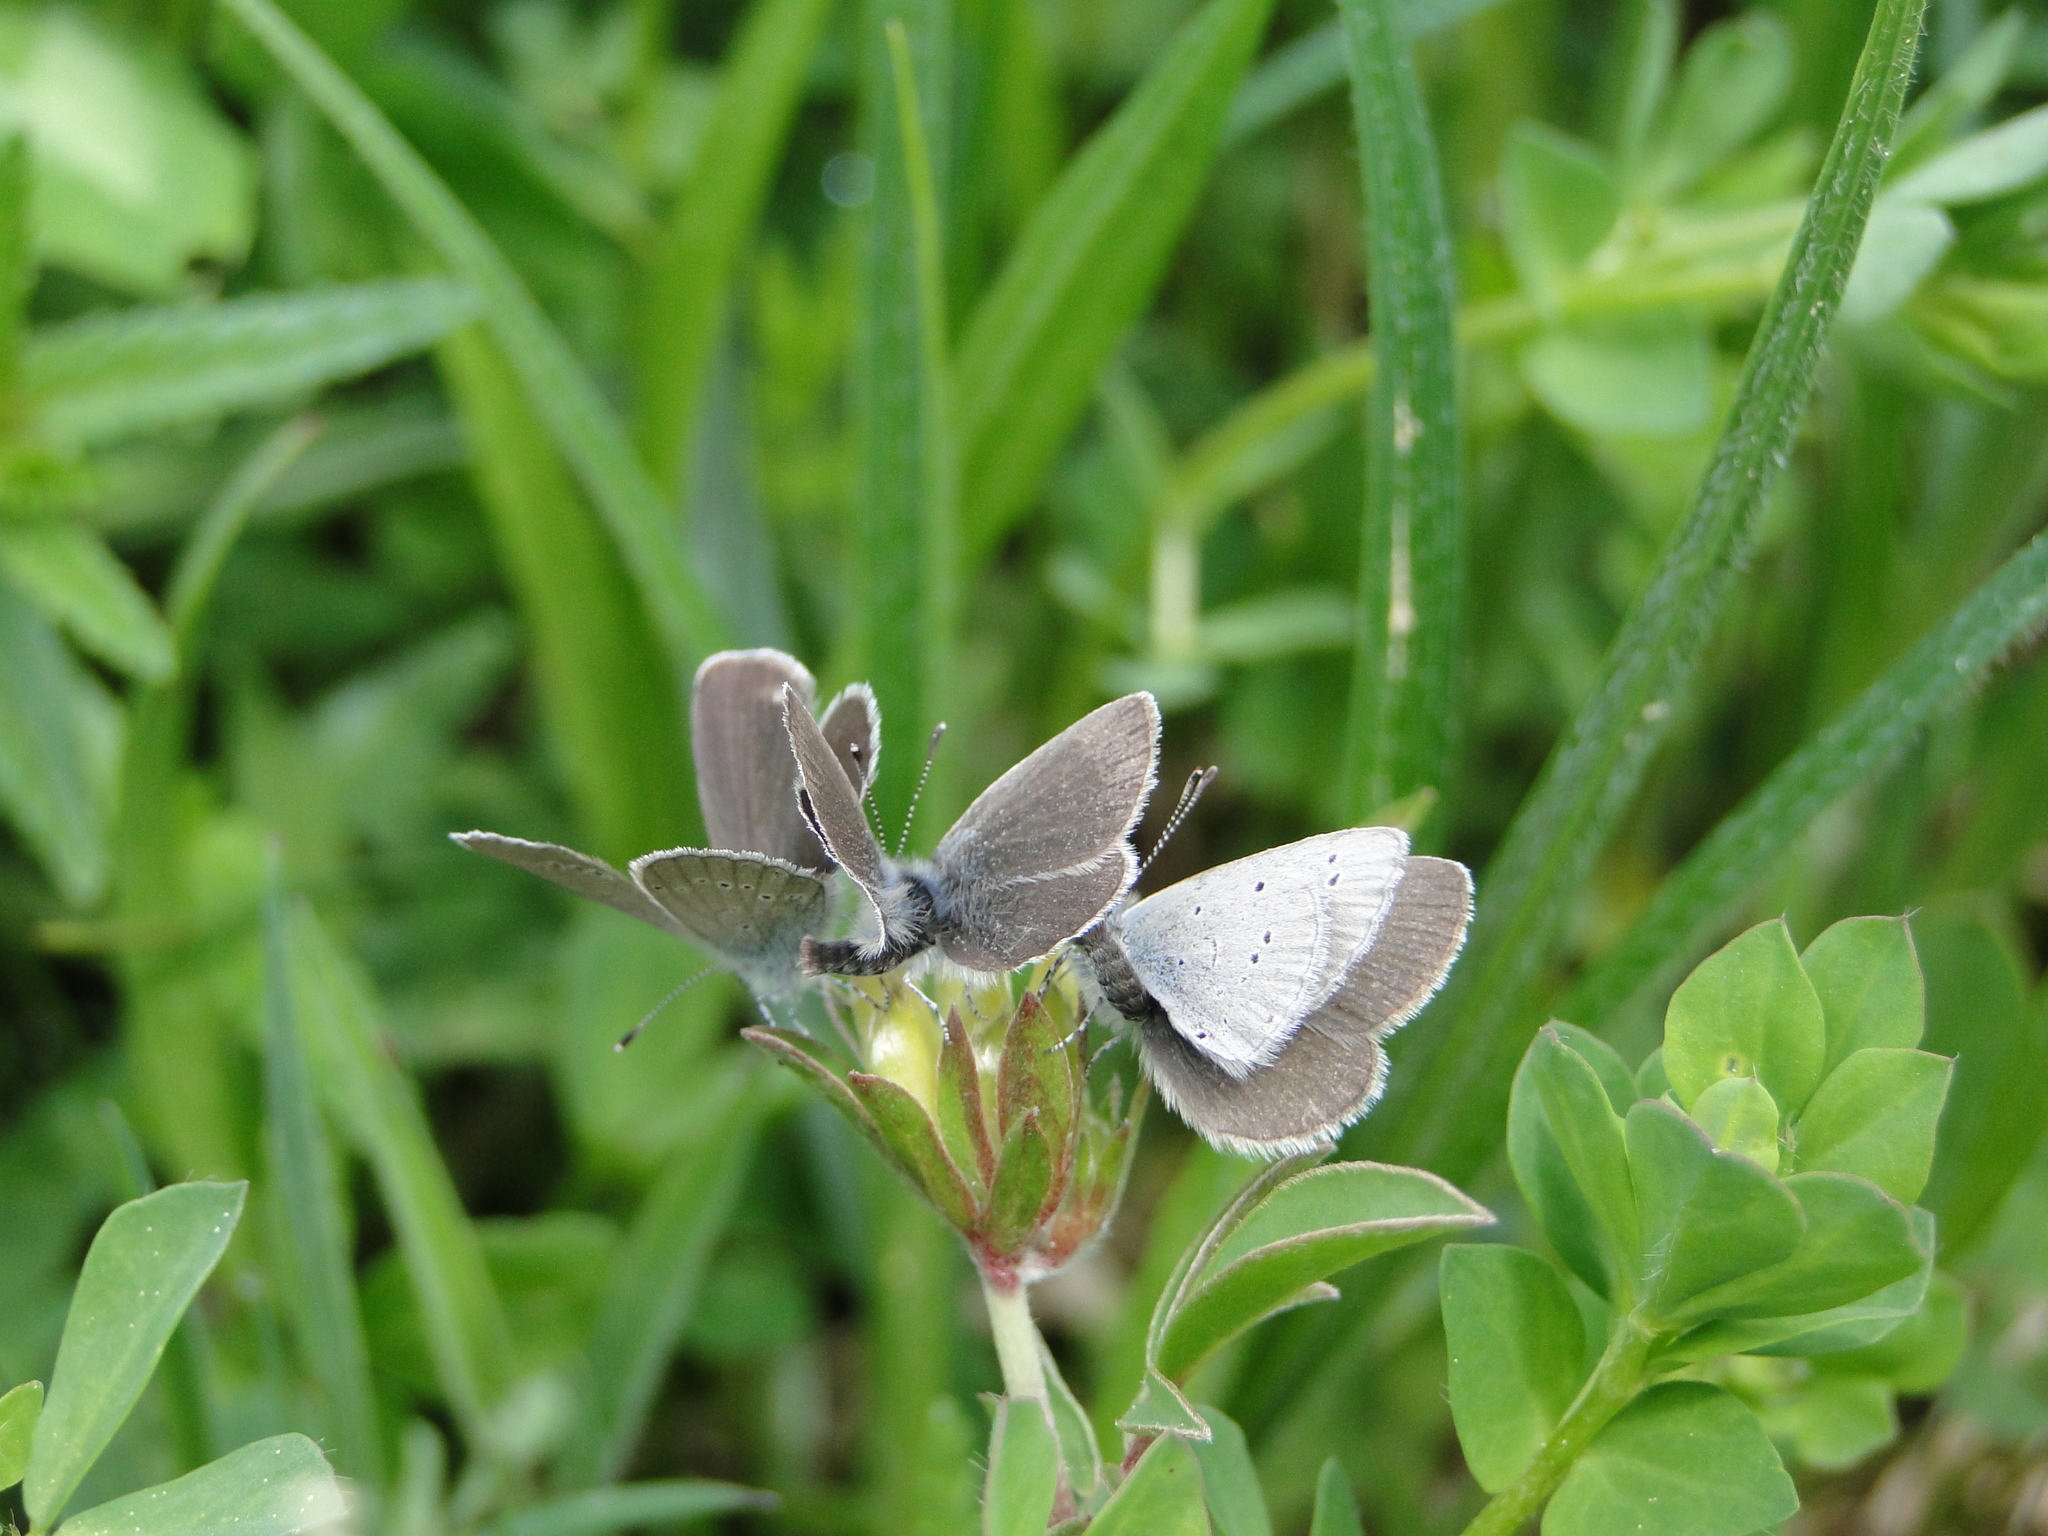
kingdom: Animalia
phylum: Arthropoda
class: Insecta
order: Lepidoptera
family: Lycaenidae
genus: Cupido
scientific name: Cupido minimus
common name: Small blue
